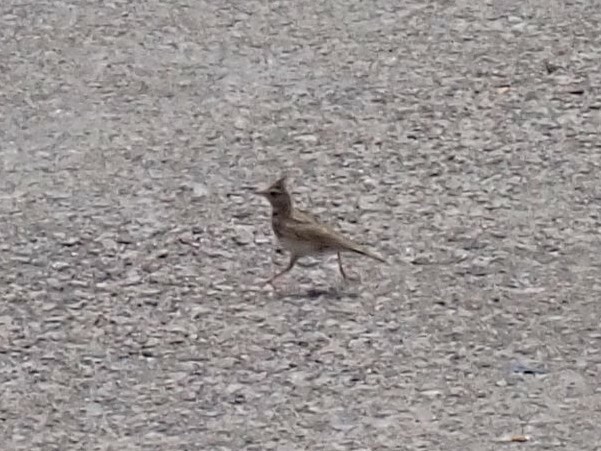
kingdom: Animalia
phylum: Chordata
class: Aves
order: Passeriformes
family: Alaudidae
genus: Galerida
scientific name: Galerida cristata
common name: Crested lark
